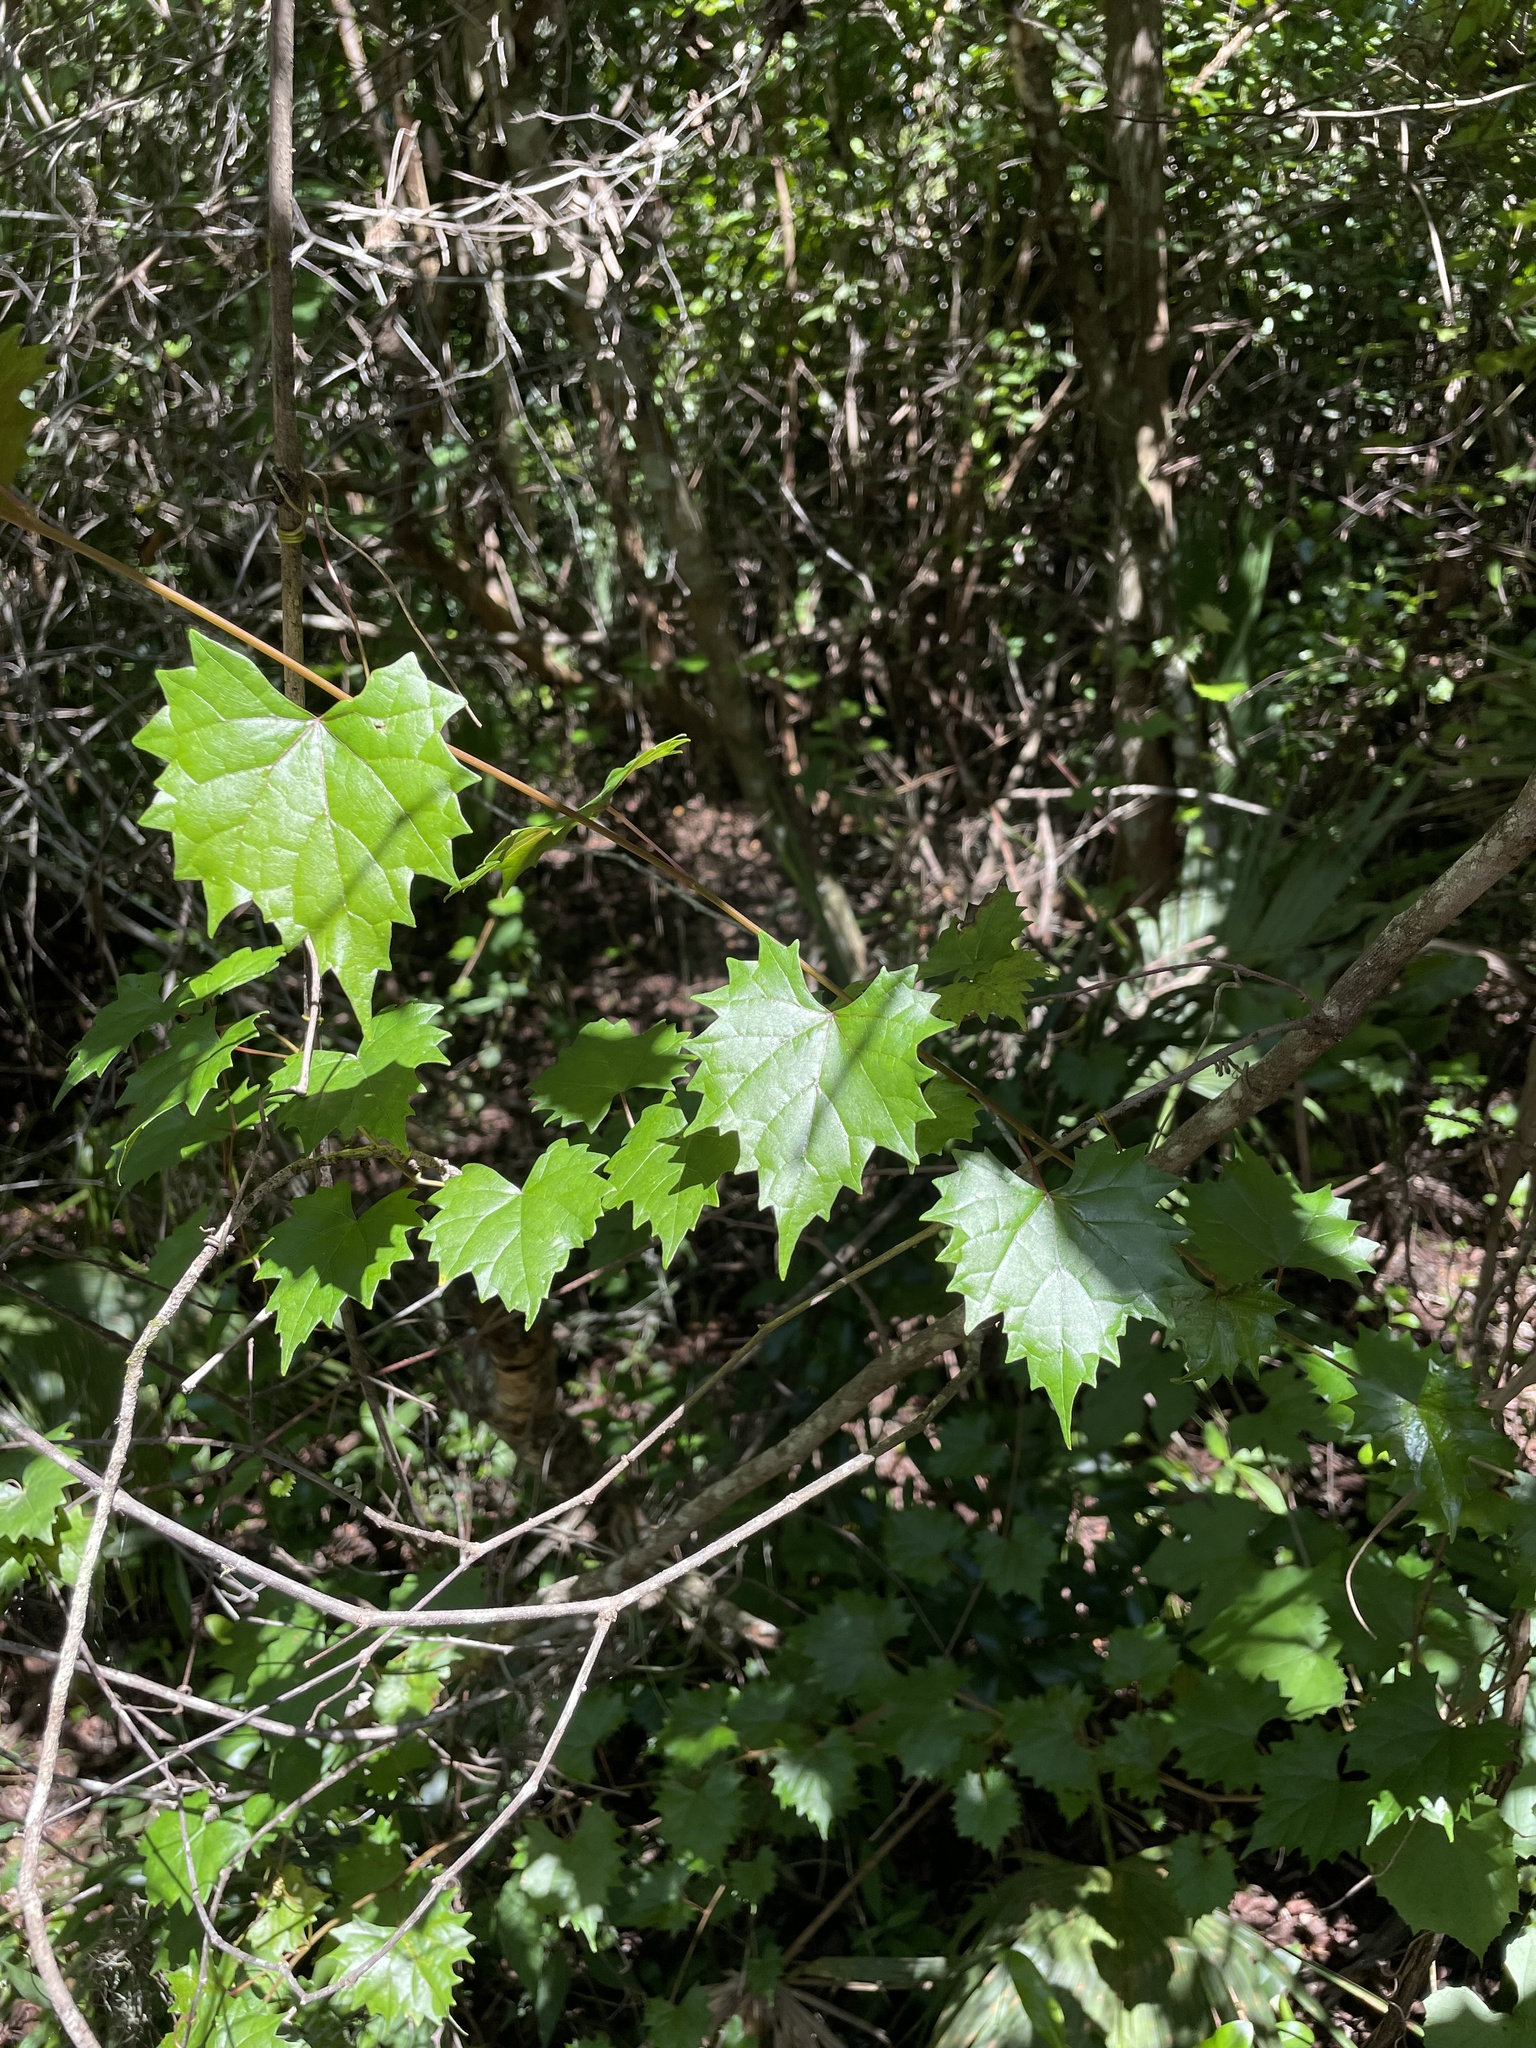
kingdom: Plantae
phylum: Tracheophyta
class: Magnoliopsida
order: Vitales
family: Vitaceae
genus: Vitis
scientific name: Vitis rotundifolia
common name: Muscadine grape
